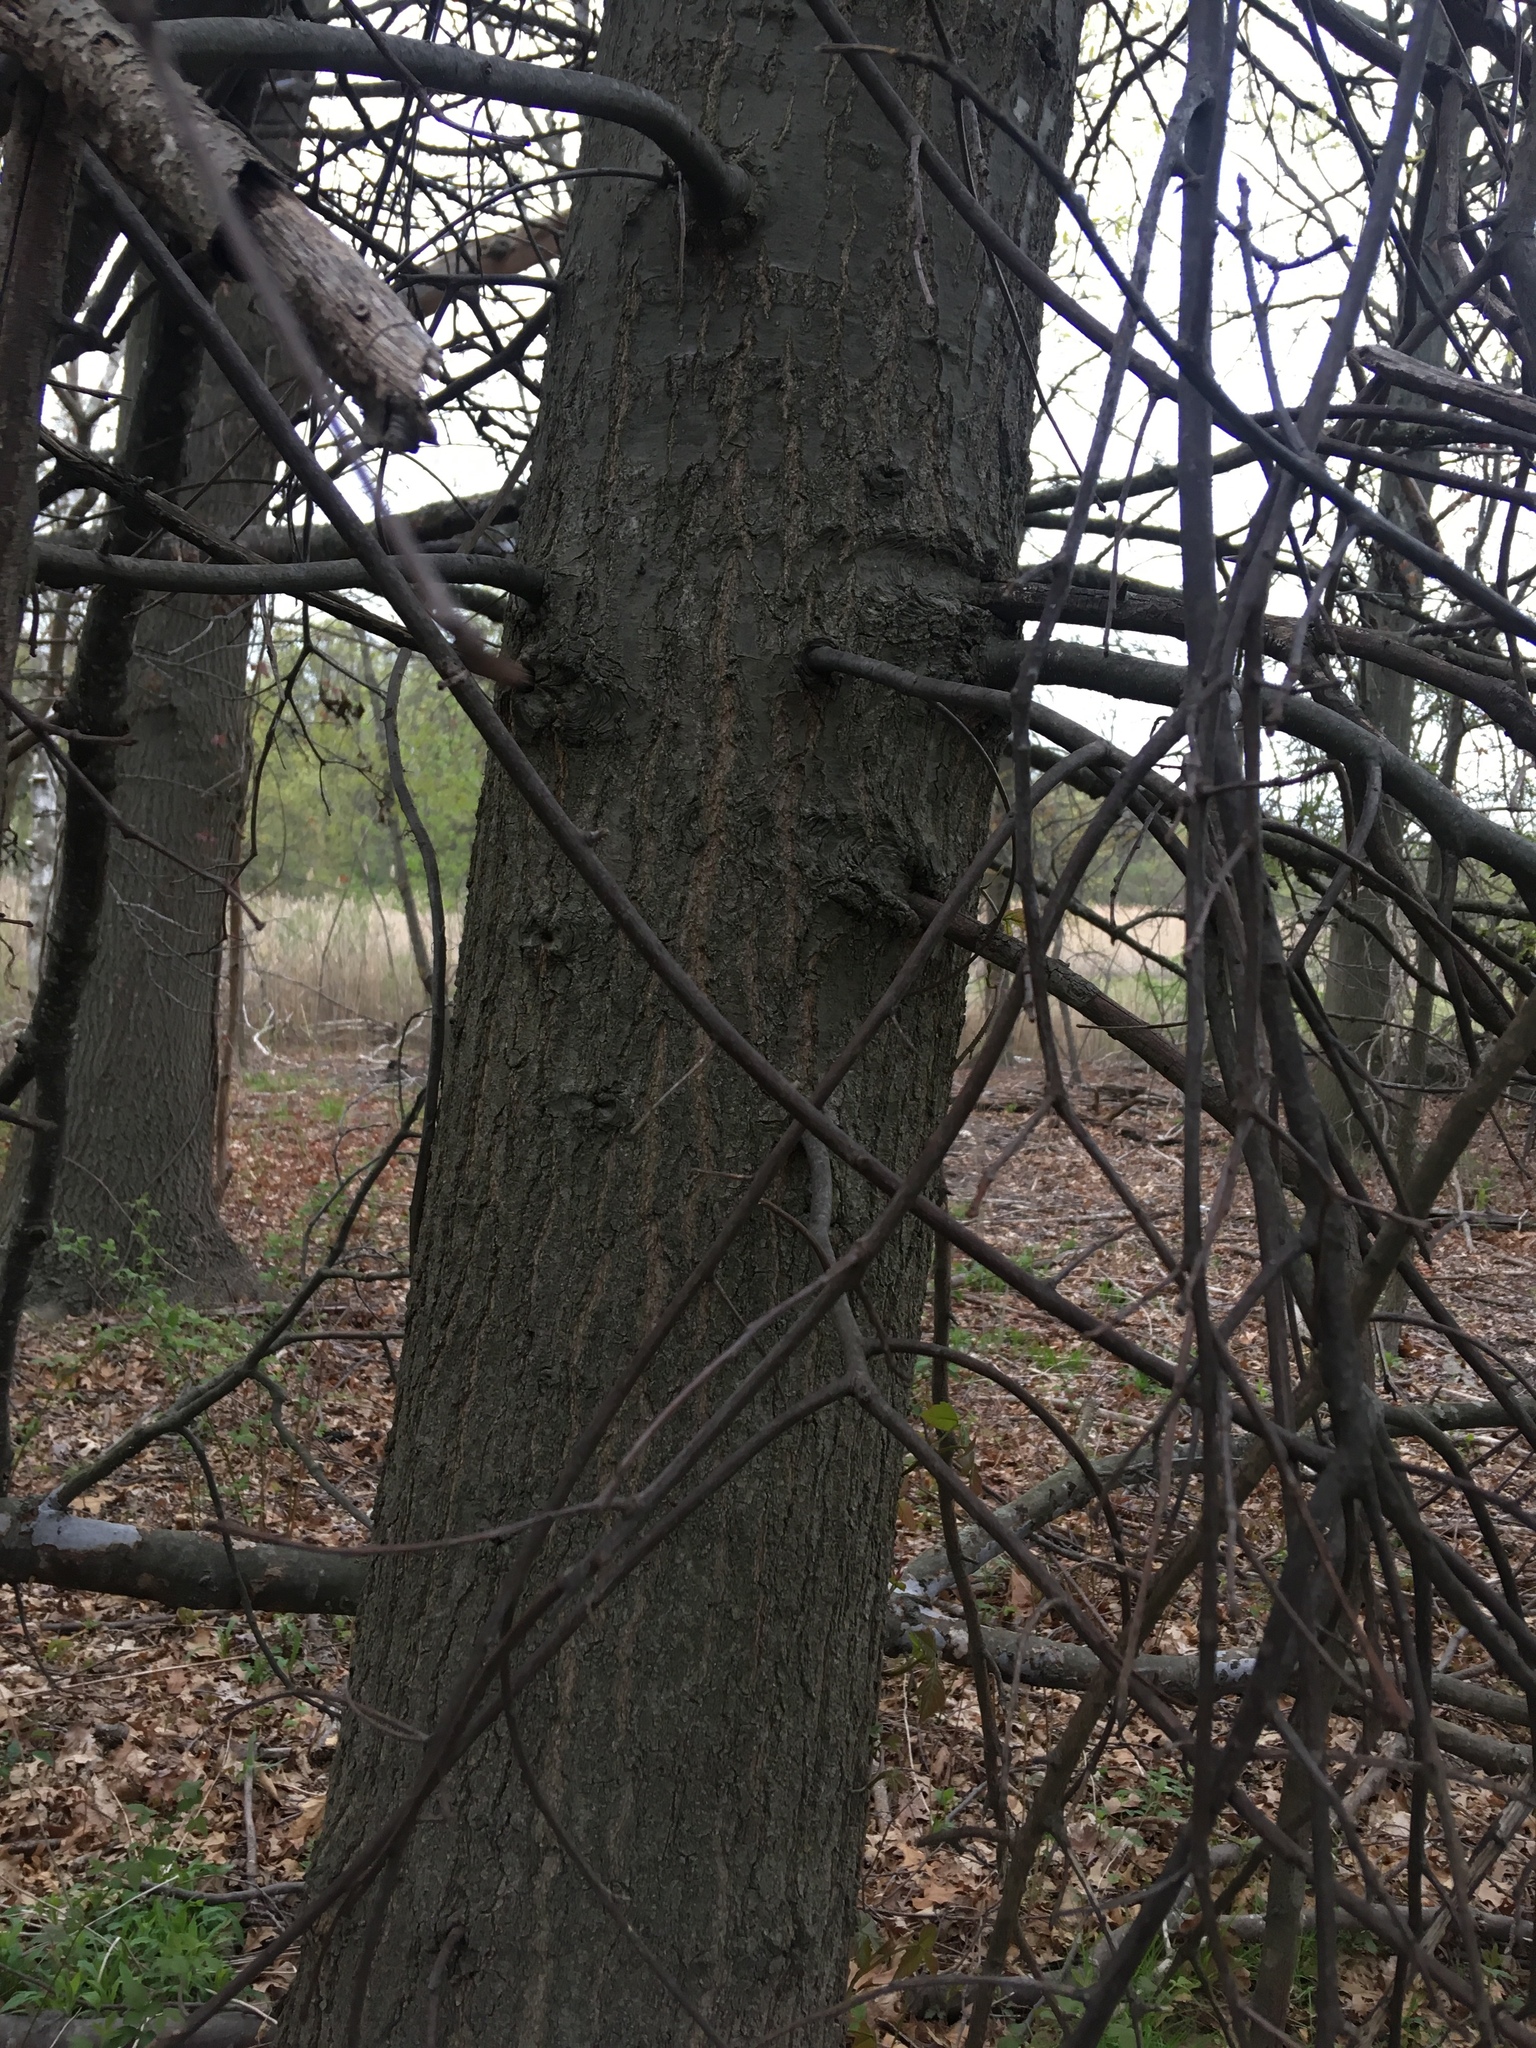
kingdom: Plantae
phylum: Tracheophyta
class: Magnoliopsida
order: Fagales
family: Fagaceae
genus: Quercus
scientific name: Quercus palustris
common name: Pin oak
